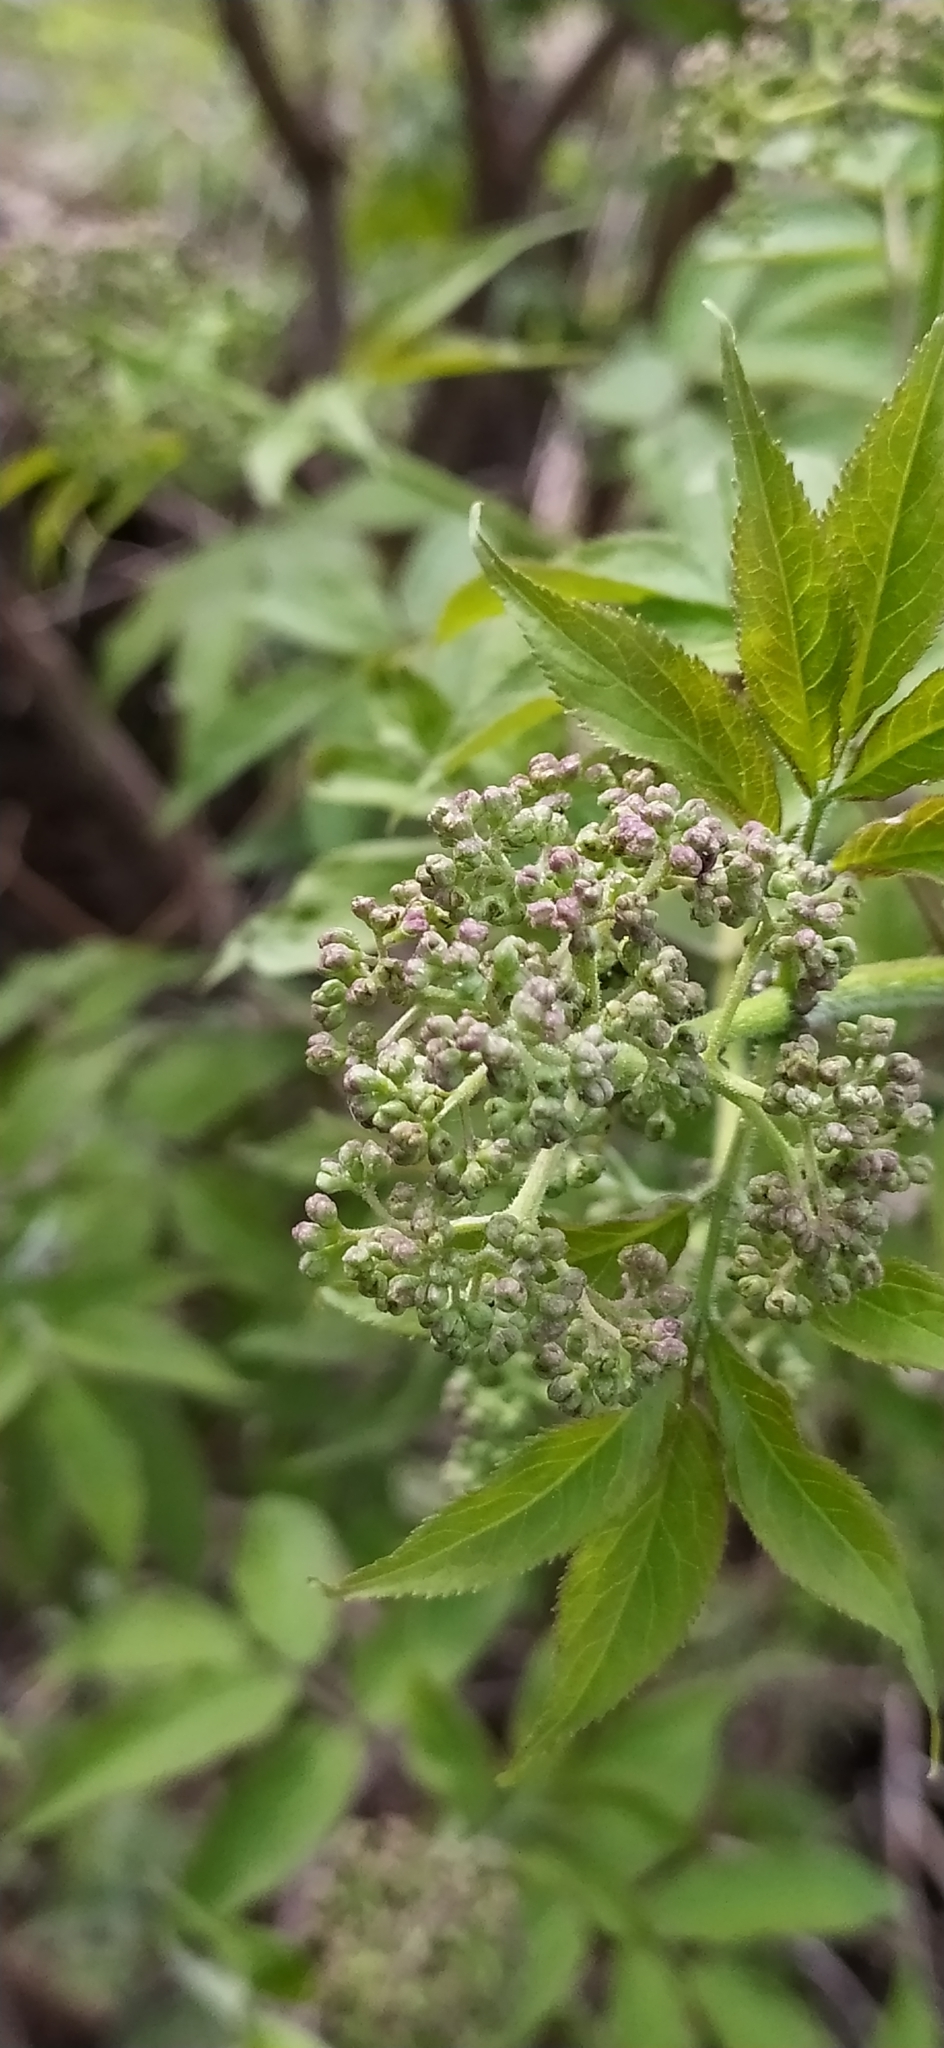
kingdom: Plantae
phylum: Tracheophyta
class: Magnoliopsida
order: Dipsacales
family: Viburnaceae
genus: Sambucus
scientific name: Sambucus sibirica
